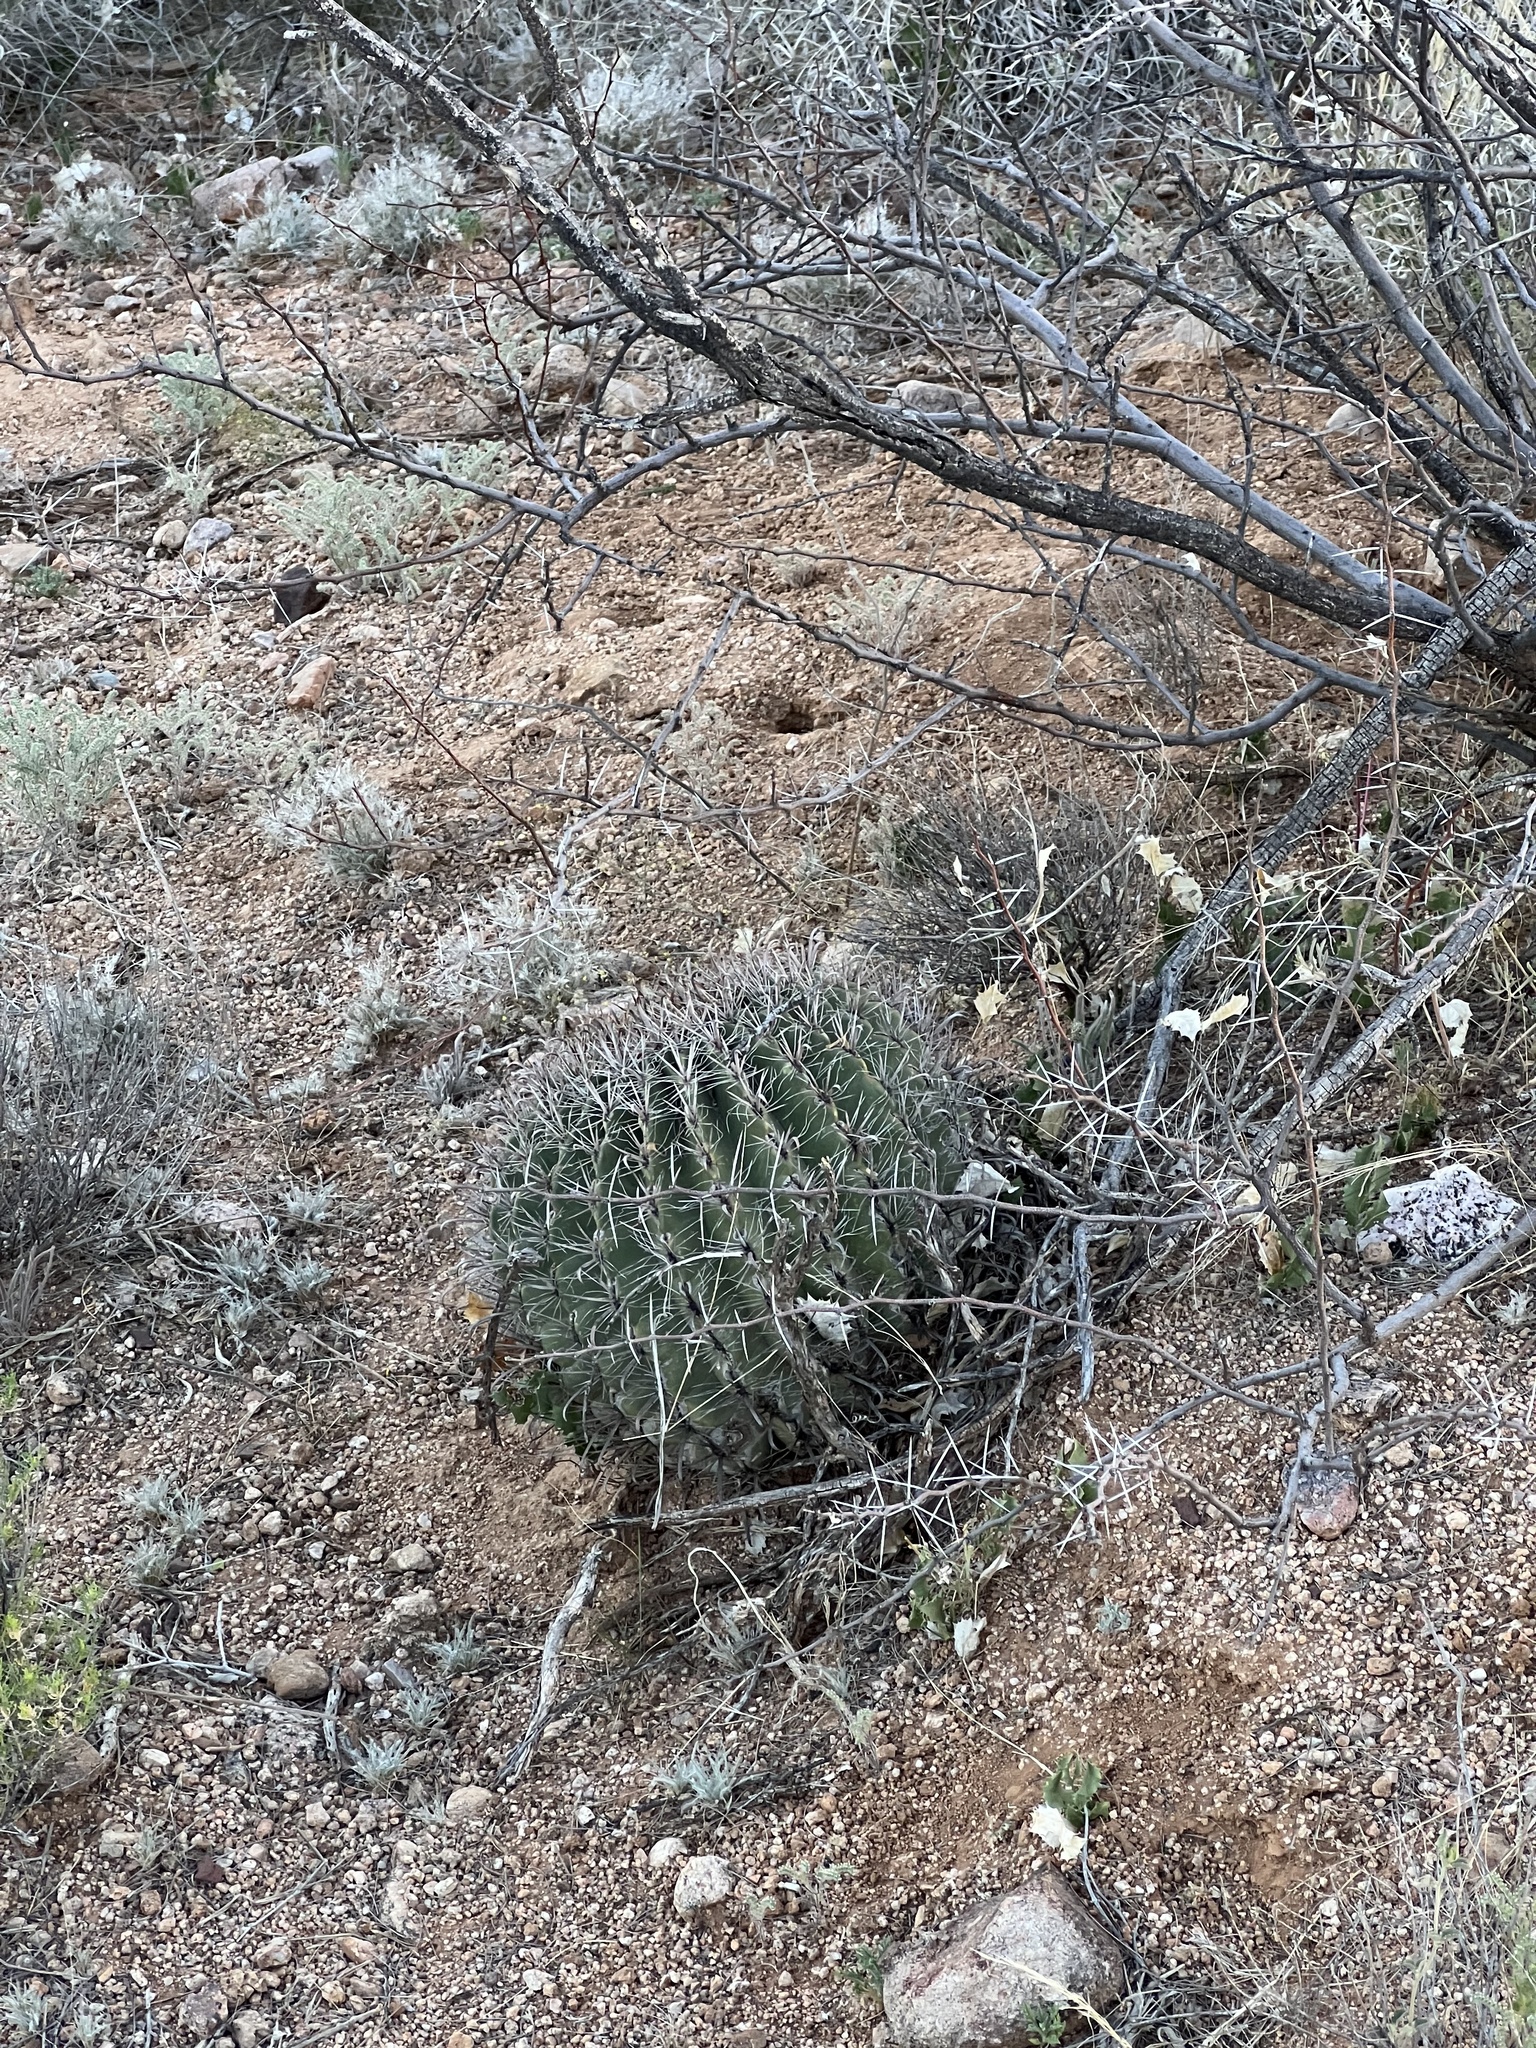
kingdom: Plantae
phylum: Tracheophyta
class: Magnoliopsida
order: Caryophyllales
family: Cactaceae
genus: Ferocactus
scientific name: Ferocactus wislizeni
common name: Candy barrel cactus
